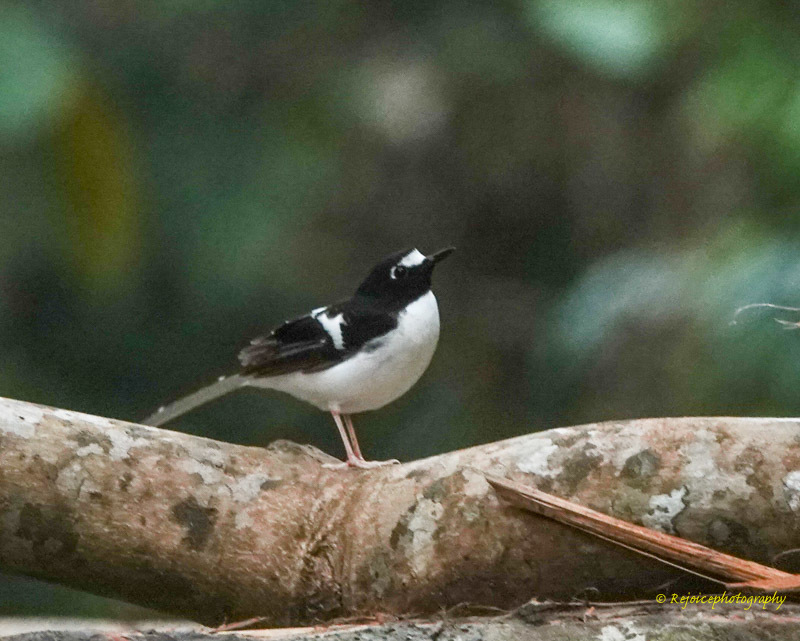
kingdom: Animalia
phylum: Chordata
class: Aves
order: Passeriformes
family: Muscicapidae
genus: Enicurus
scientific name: Enicurus immaculatus
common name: Black-backed forktail
